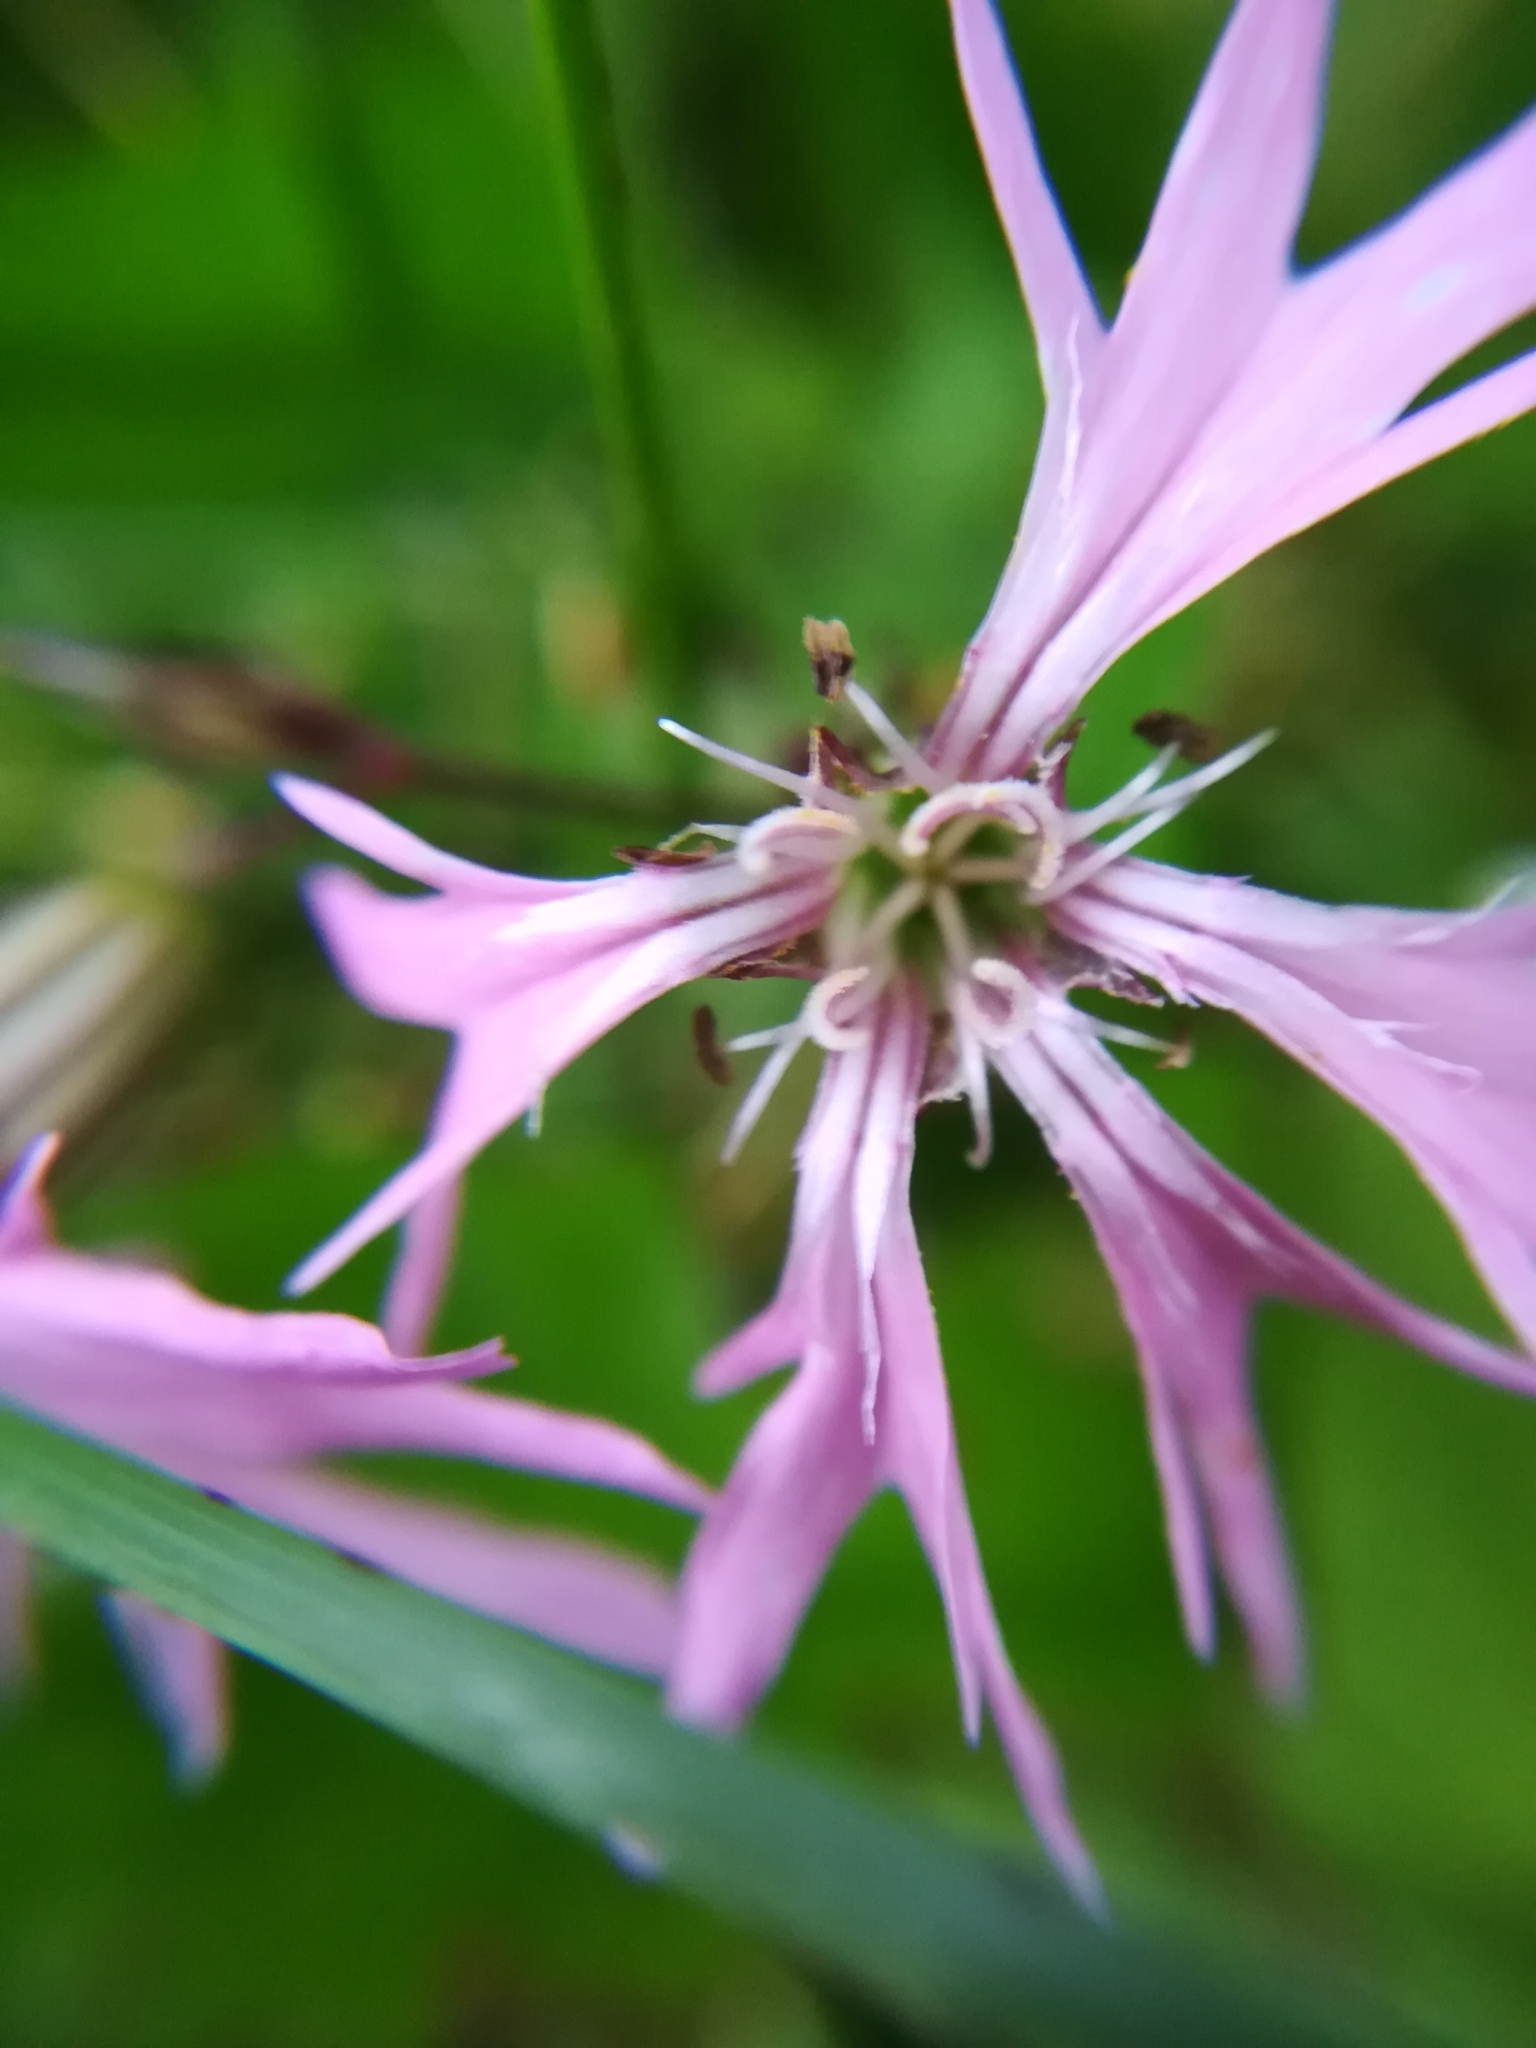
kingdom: Plantae
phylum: Tracheophyta
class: Magnoliopsida
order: Caryophyllales
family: Caryophyllaceae
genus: Silene
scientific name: Silene flos-cuculi
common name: Ragged-robin
